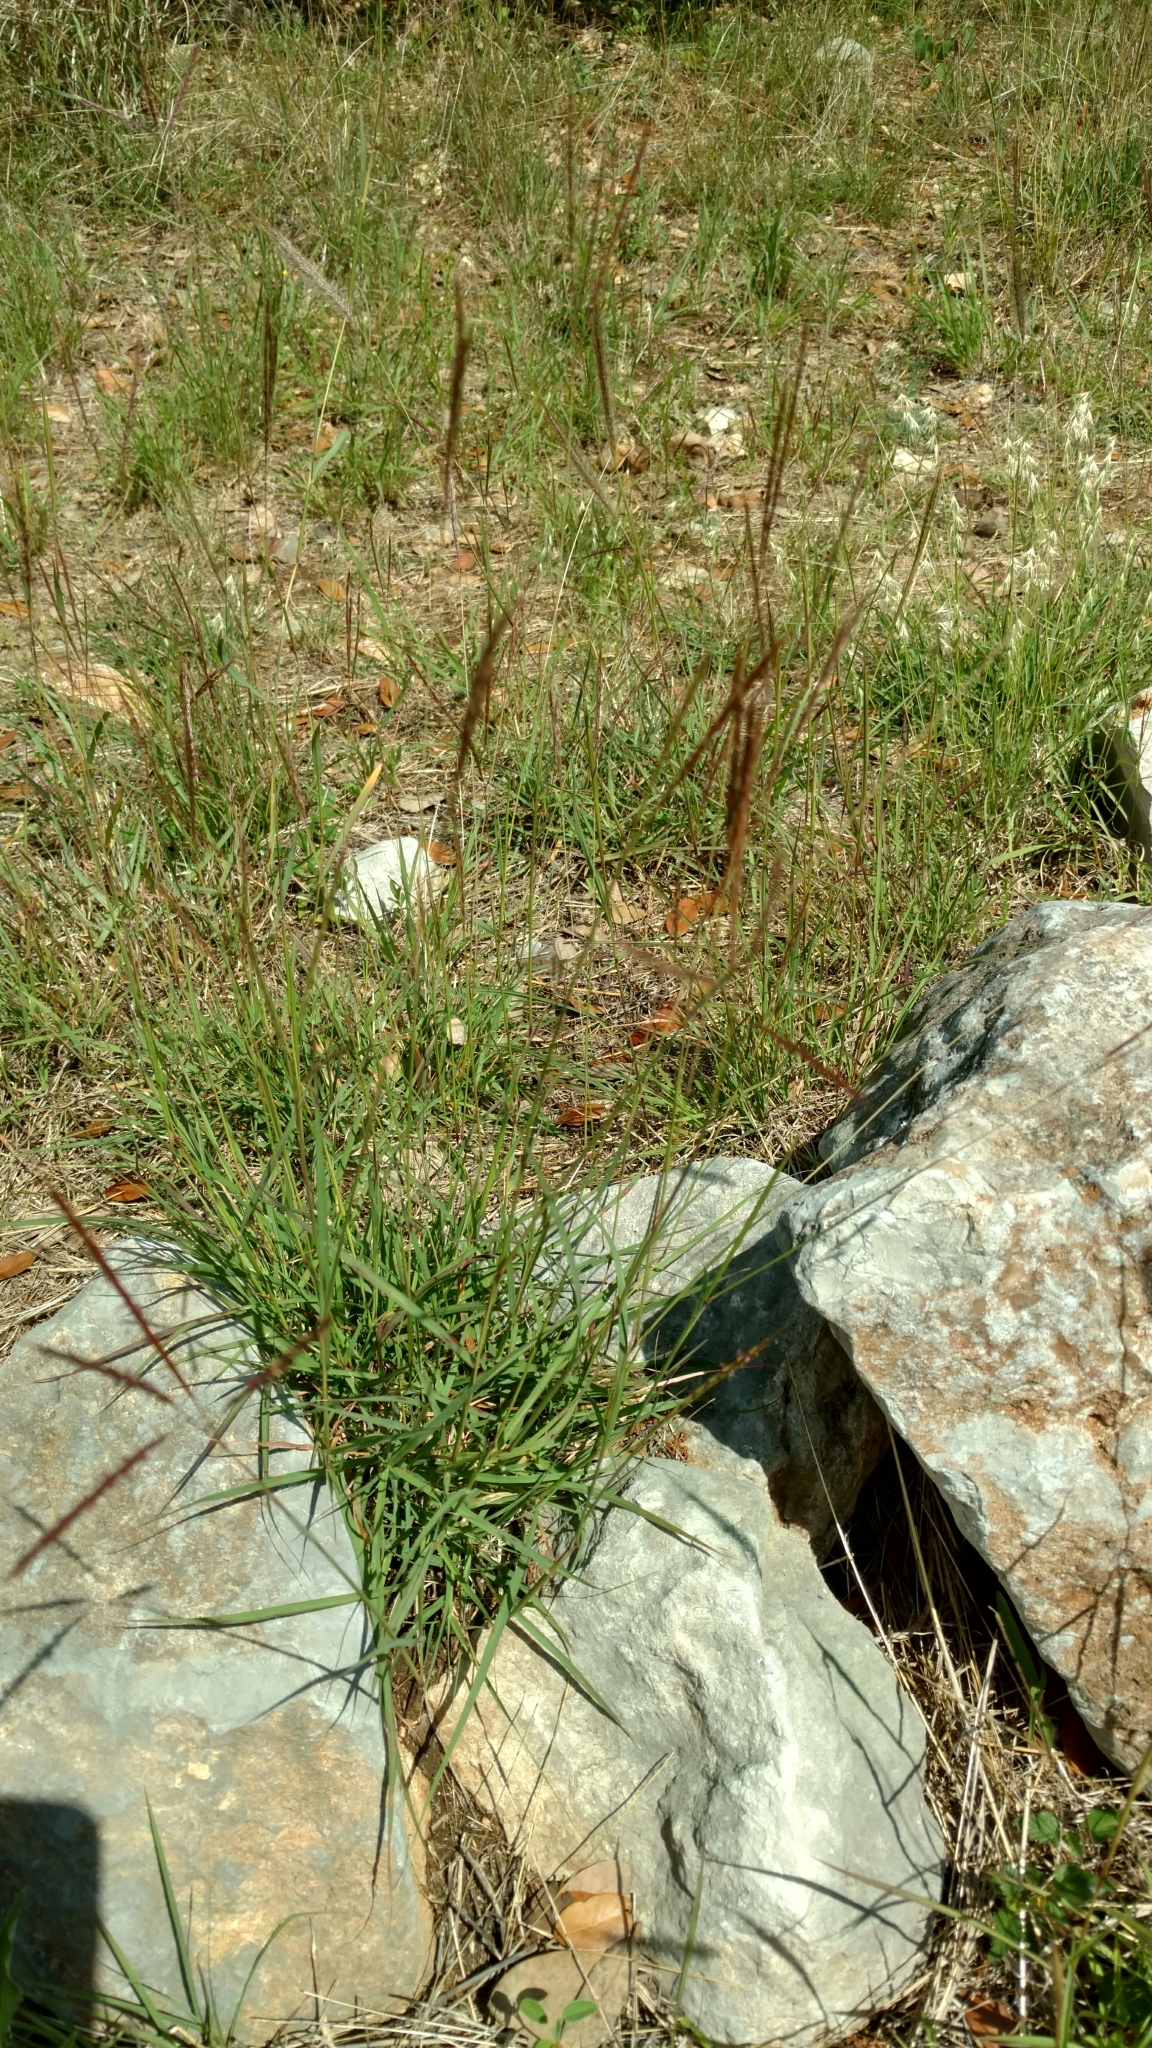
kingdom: Plantae
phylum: Tracheophyta
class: Liliopsida
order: Poales
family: Poaceae
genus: Bothriochloa
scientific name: Bothriochloa ischaemum
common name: Yellow bluestem
